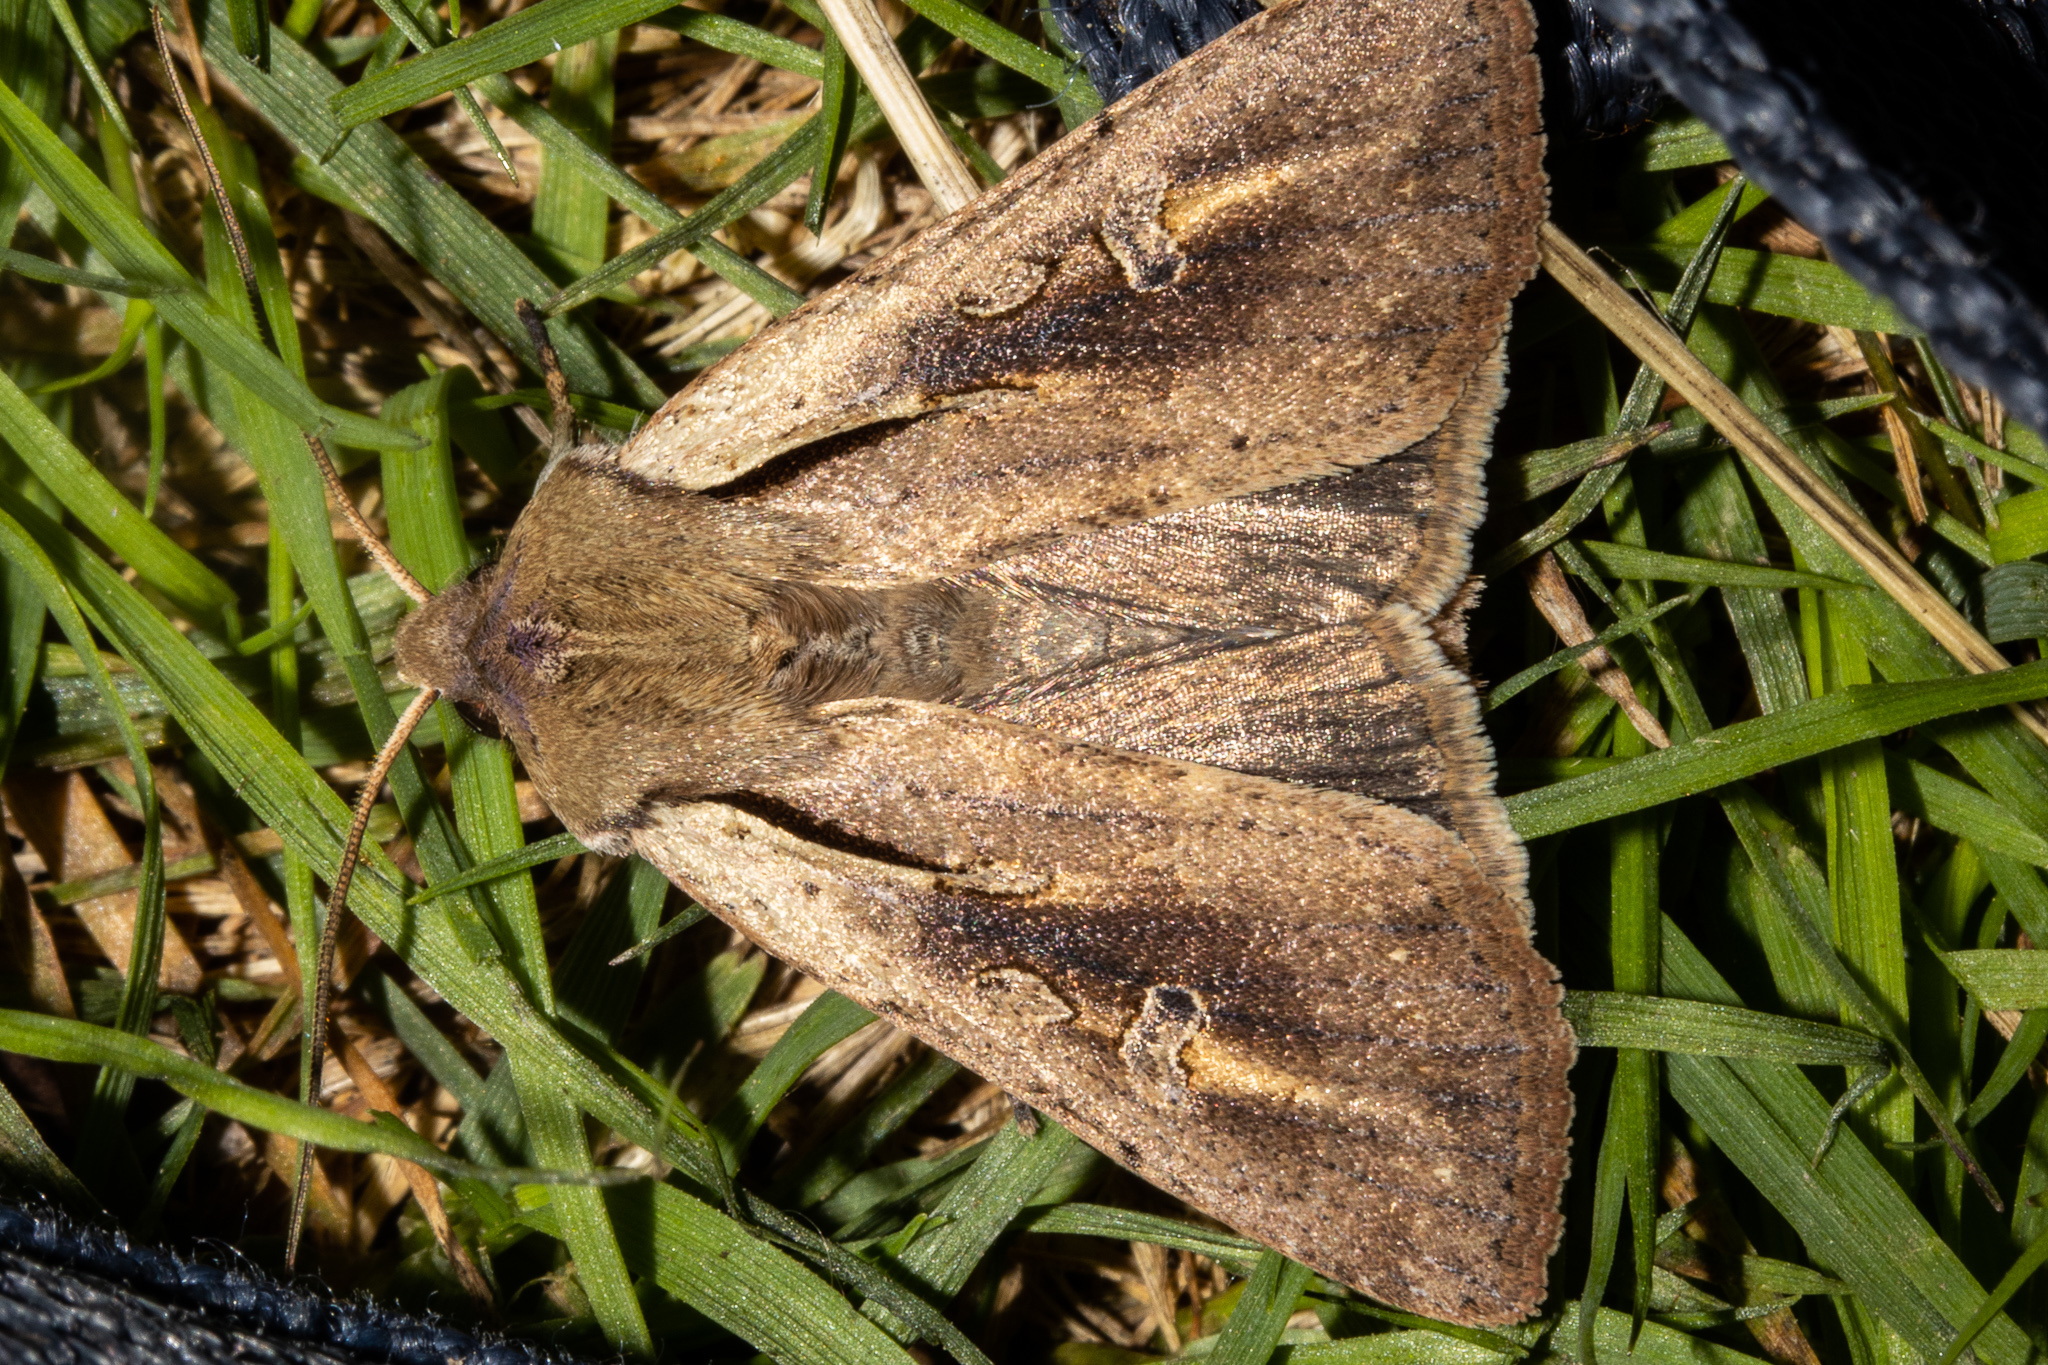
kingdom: Animalia
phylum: Arthropoda
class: Insecta
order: Lepidoptera
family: Noctuidae
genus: Ichneutica
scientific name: Ichneutica atristriga
